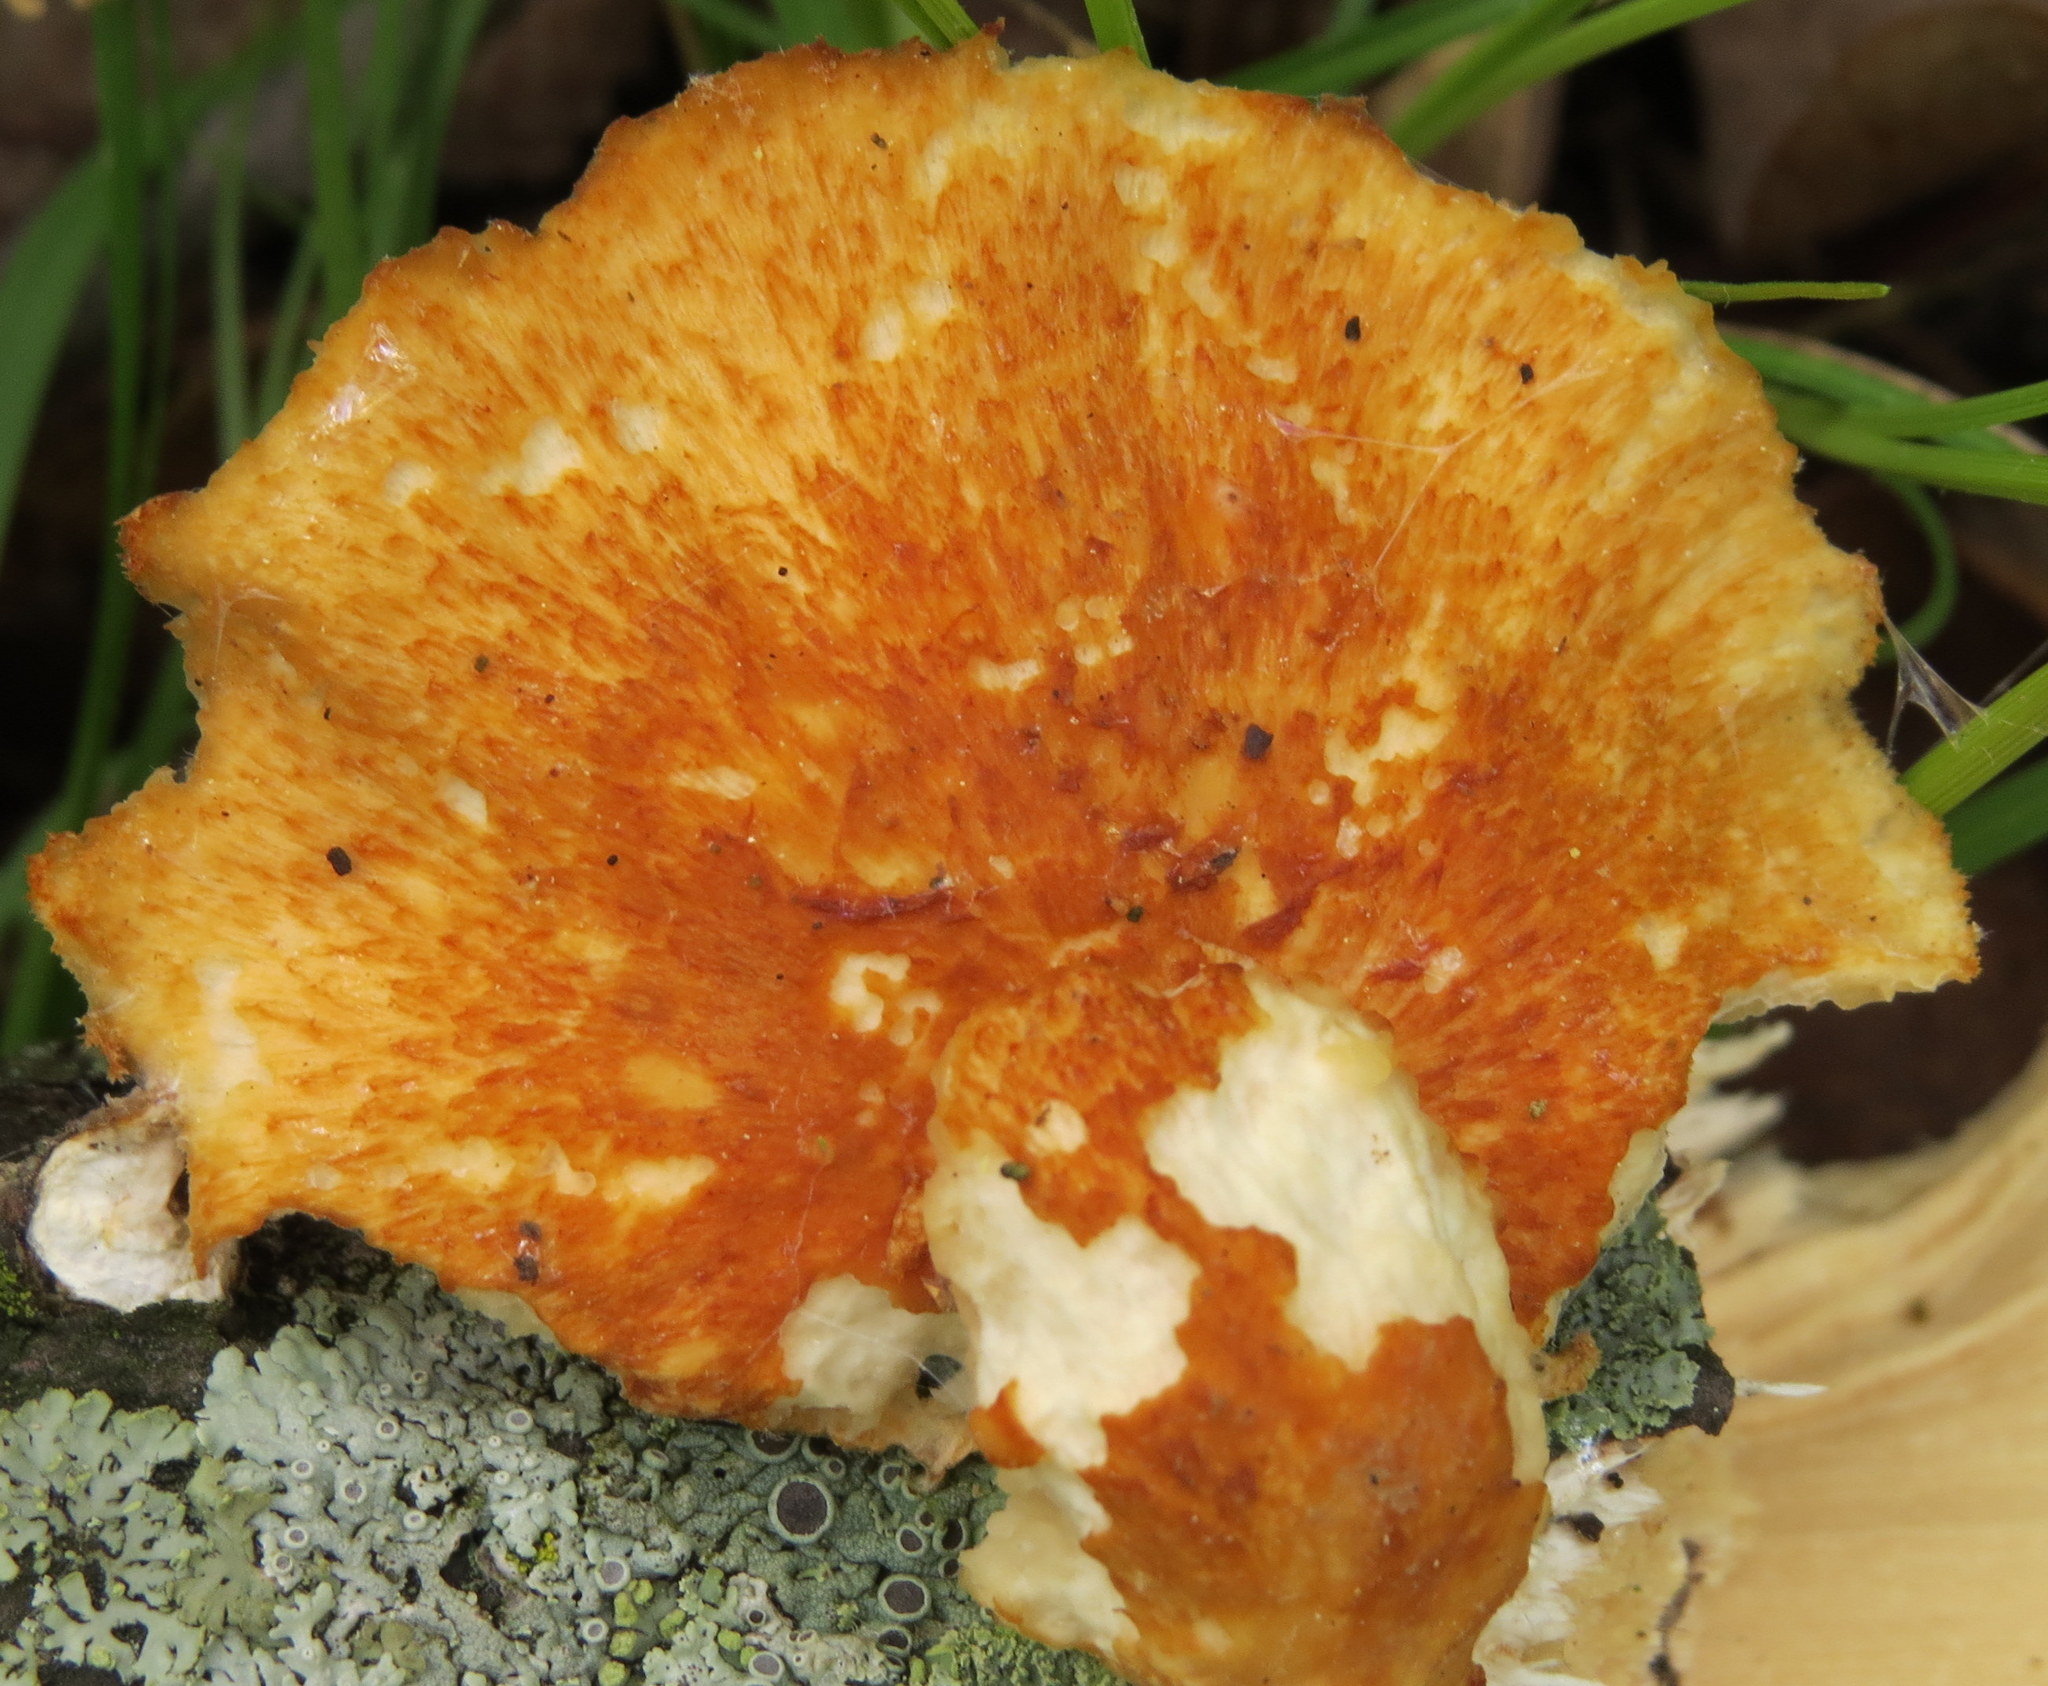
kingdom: Fungi
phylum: Basidiomycota
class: Agaricomycetes
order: Polyporales
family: Polyporaceae
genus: Neofavolus
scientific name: Neofavolus alveolaris
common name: Hexagonal-pored polypore
